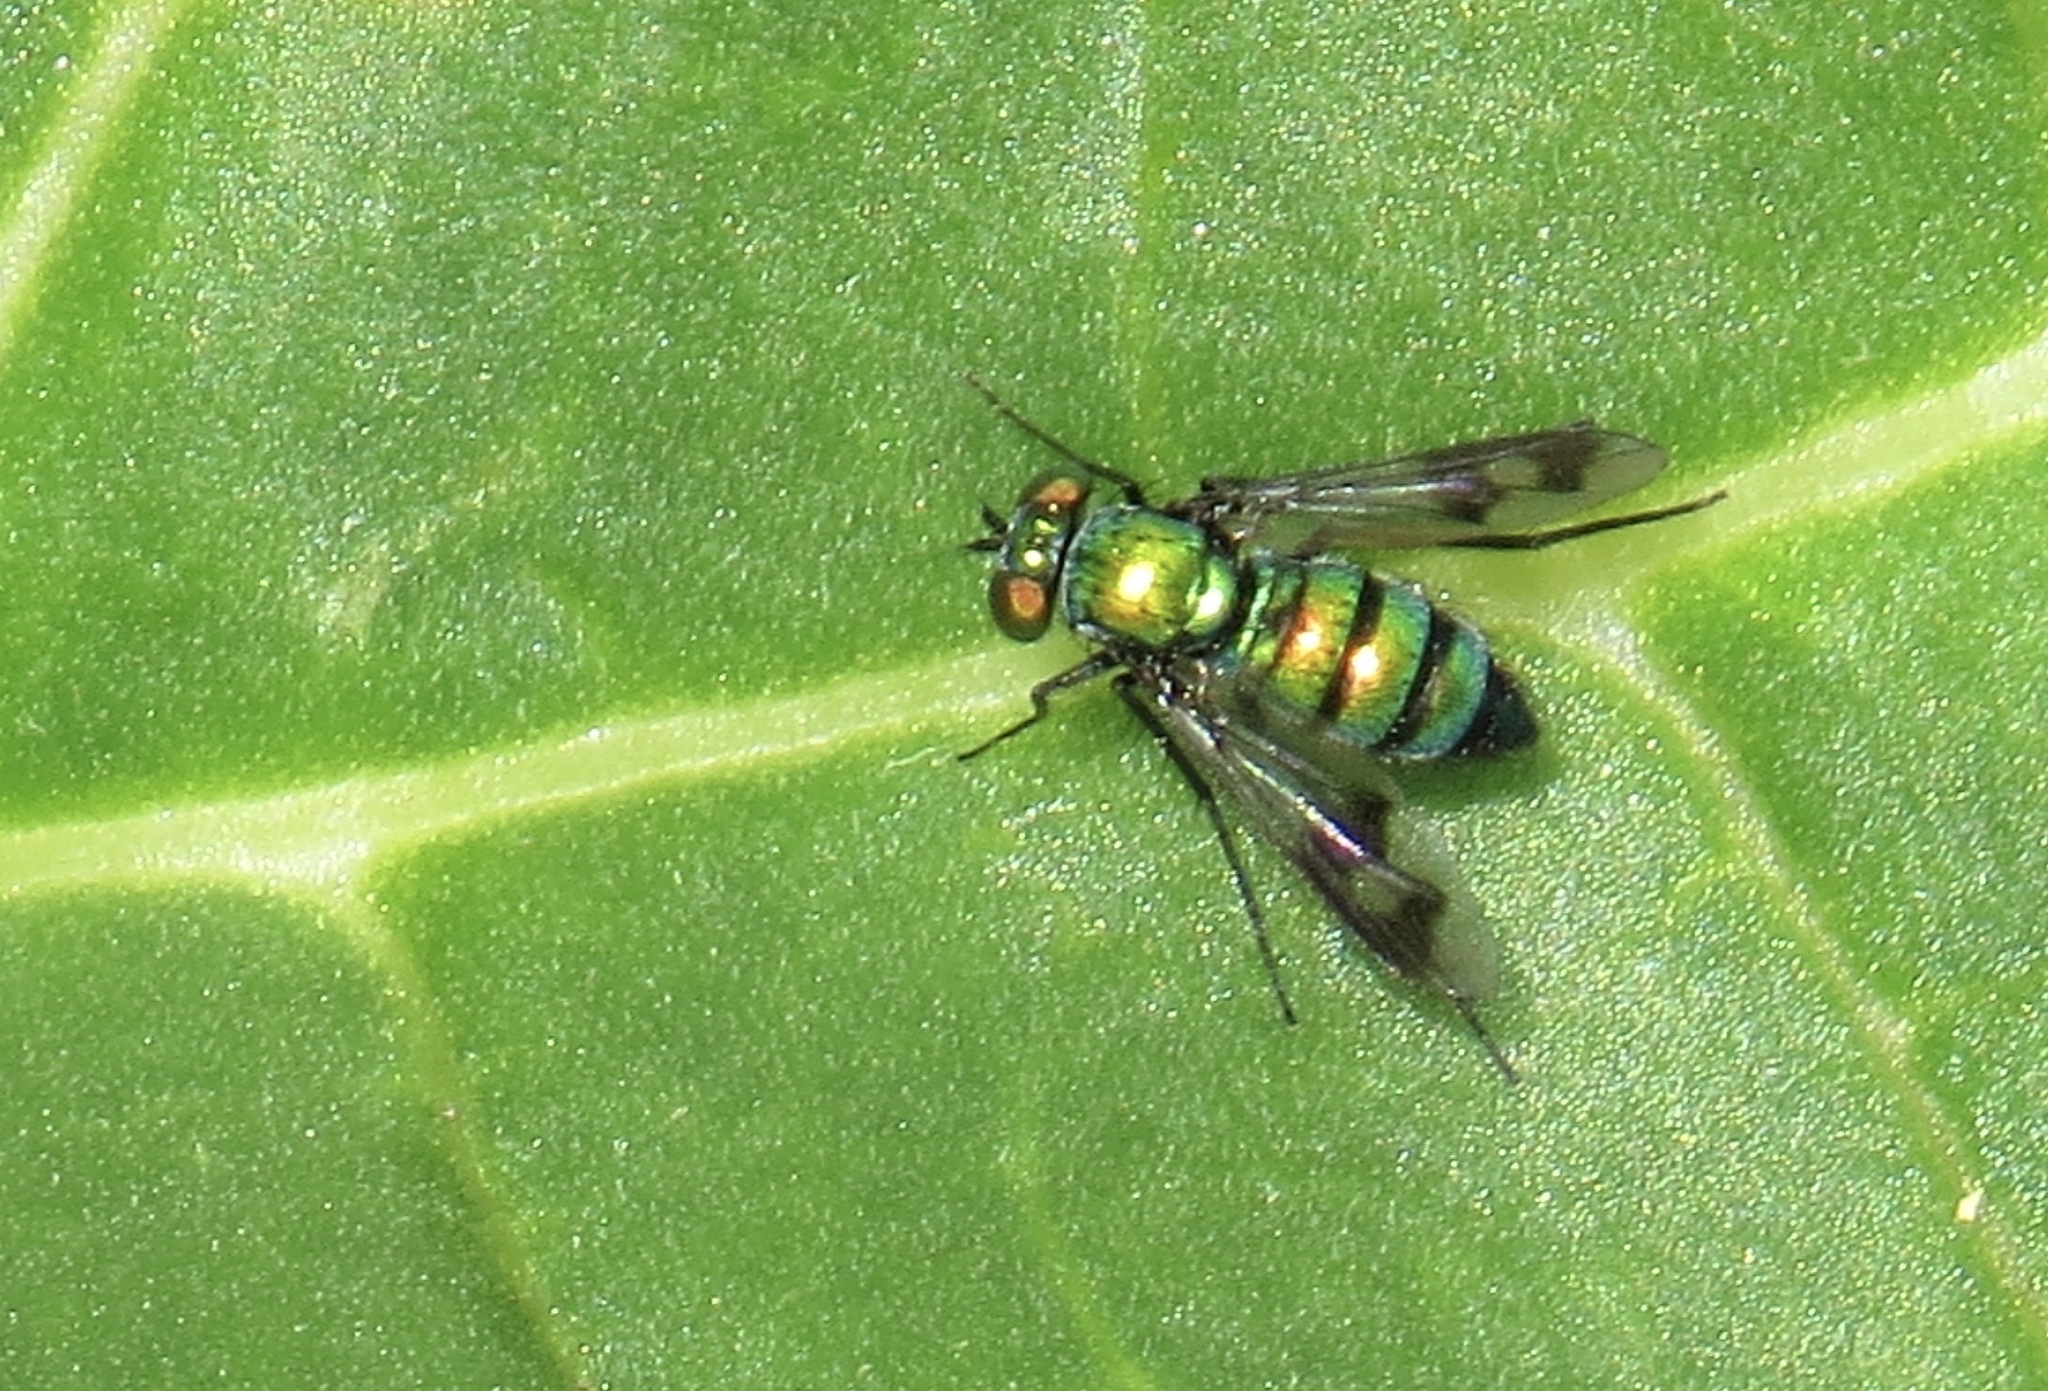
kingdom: Animalia
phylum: Arthropoda
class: Insecta
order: Diptera
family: Dolichopodidae
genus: Condylostylus
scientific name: Condylostylus occidentalis
